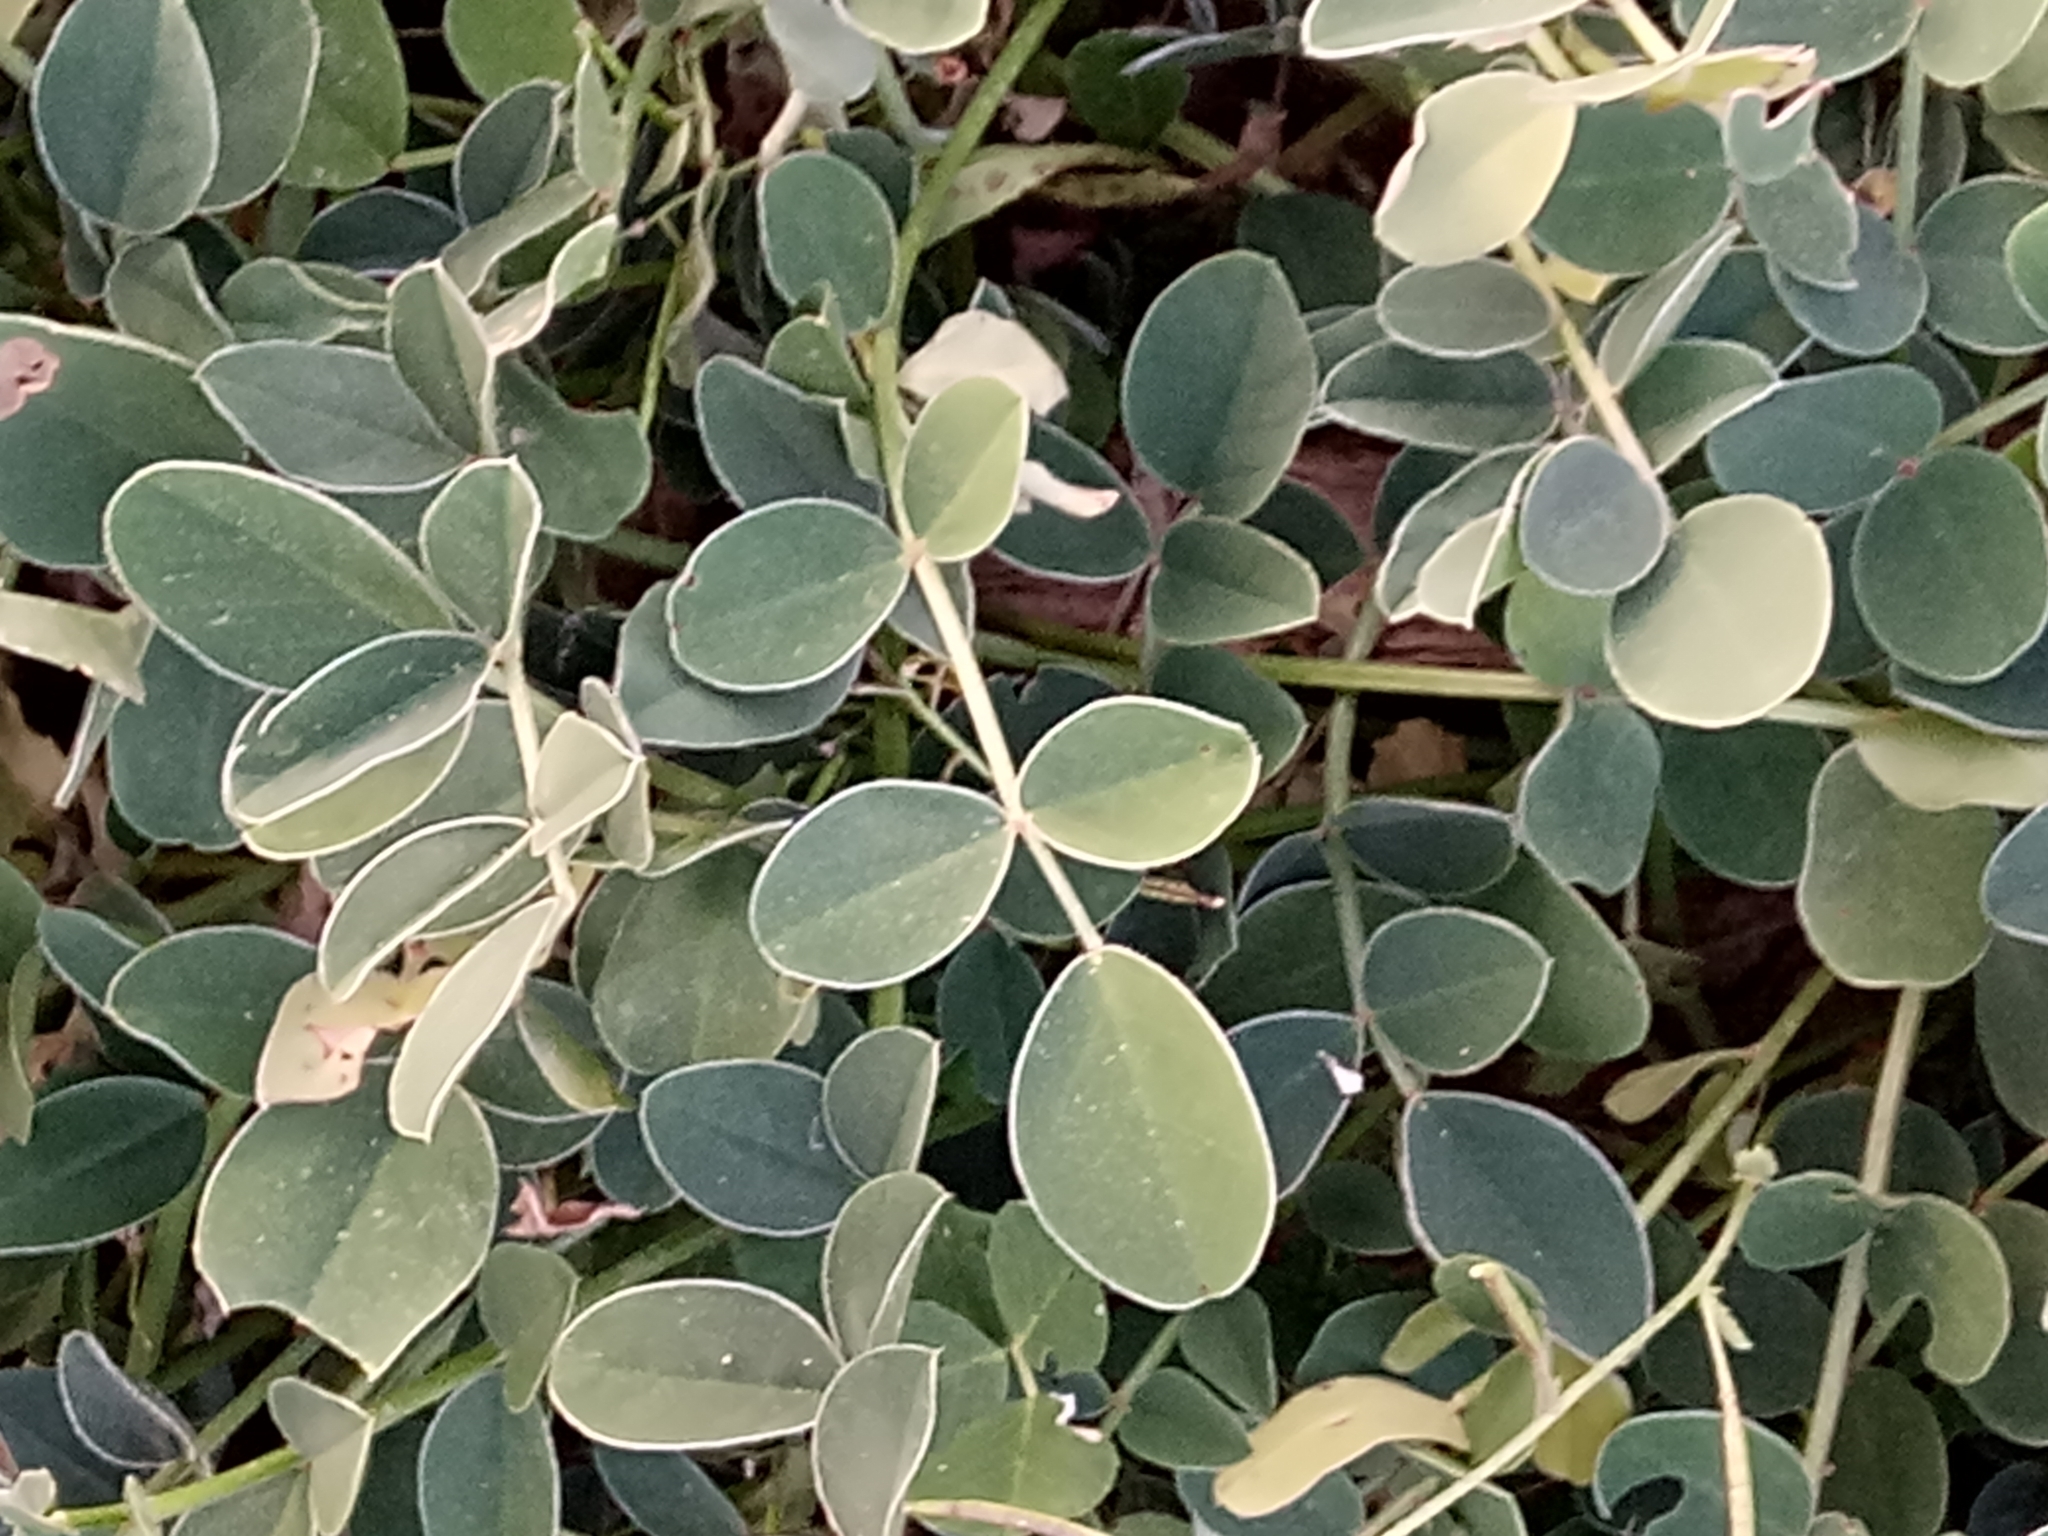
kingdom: Plantae
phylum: Tracheophyta
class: Magnoliopsida
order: Fabales
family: Fabaceae
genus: Sulla
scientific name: Sulla coronaria
